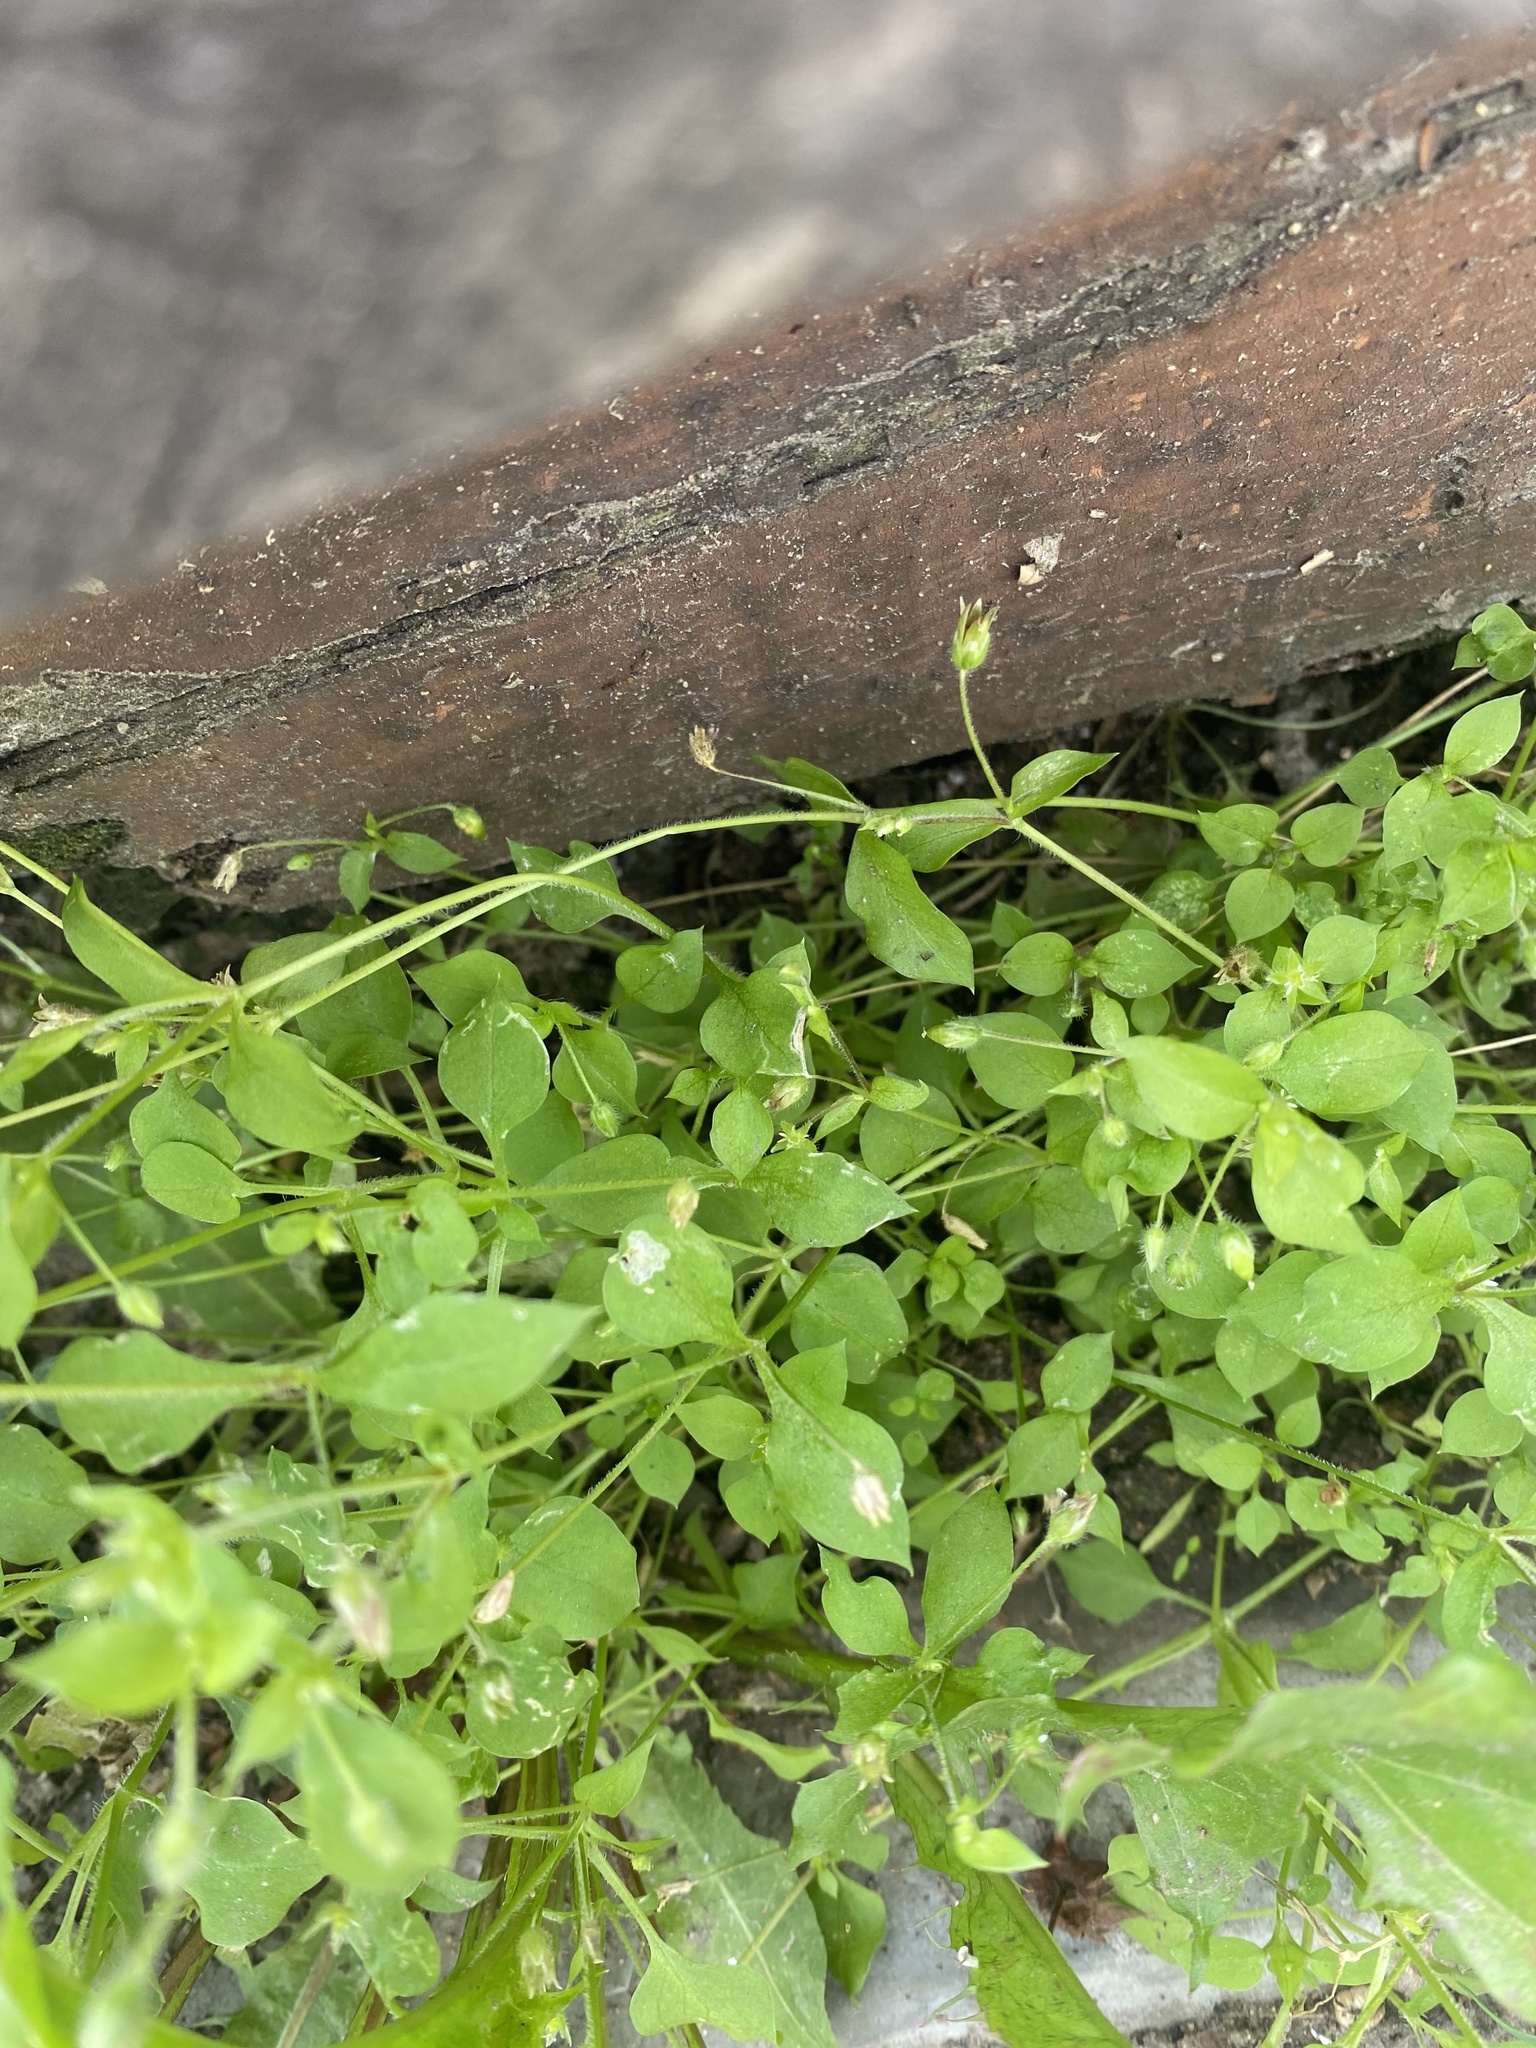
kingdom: Plantae
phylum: Tracheophyta
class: Magnoliopsida
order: Caryophyllales
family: Caryophyllaceae
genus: Stellaria
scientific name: Stellaria media
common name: Common chickweed
